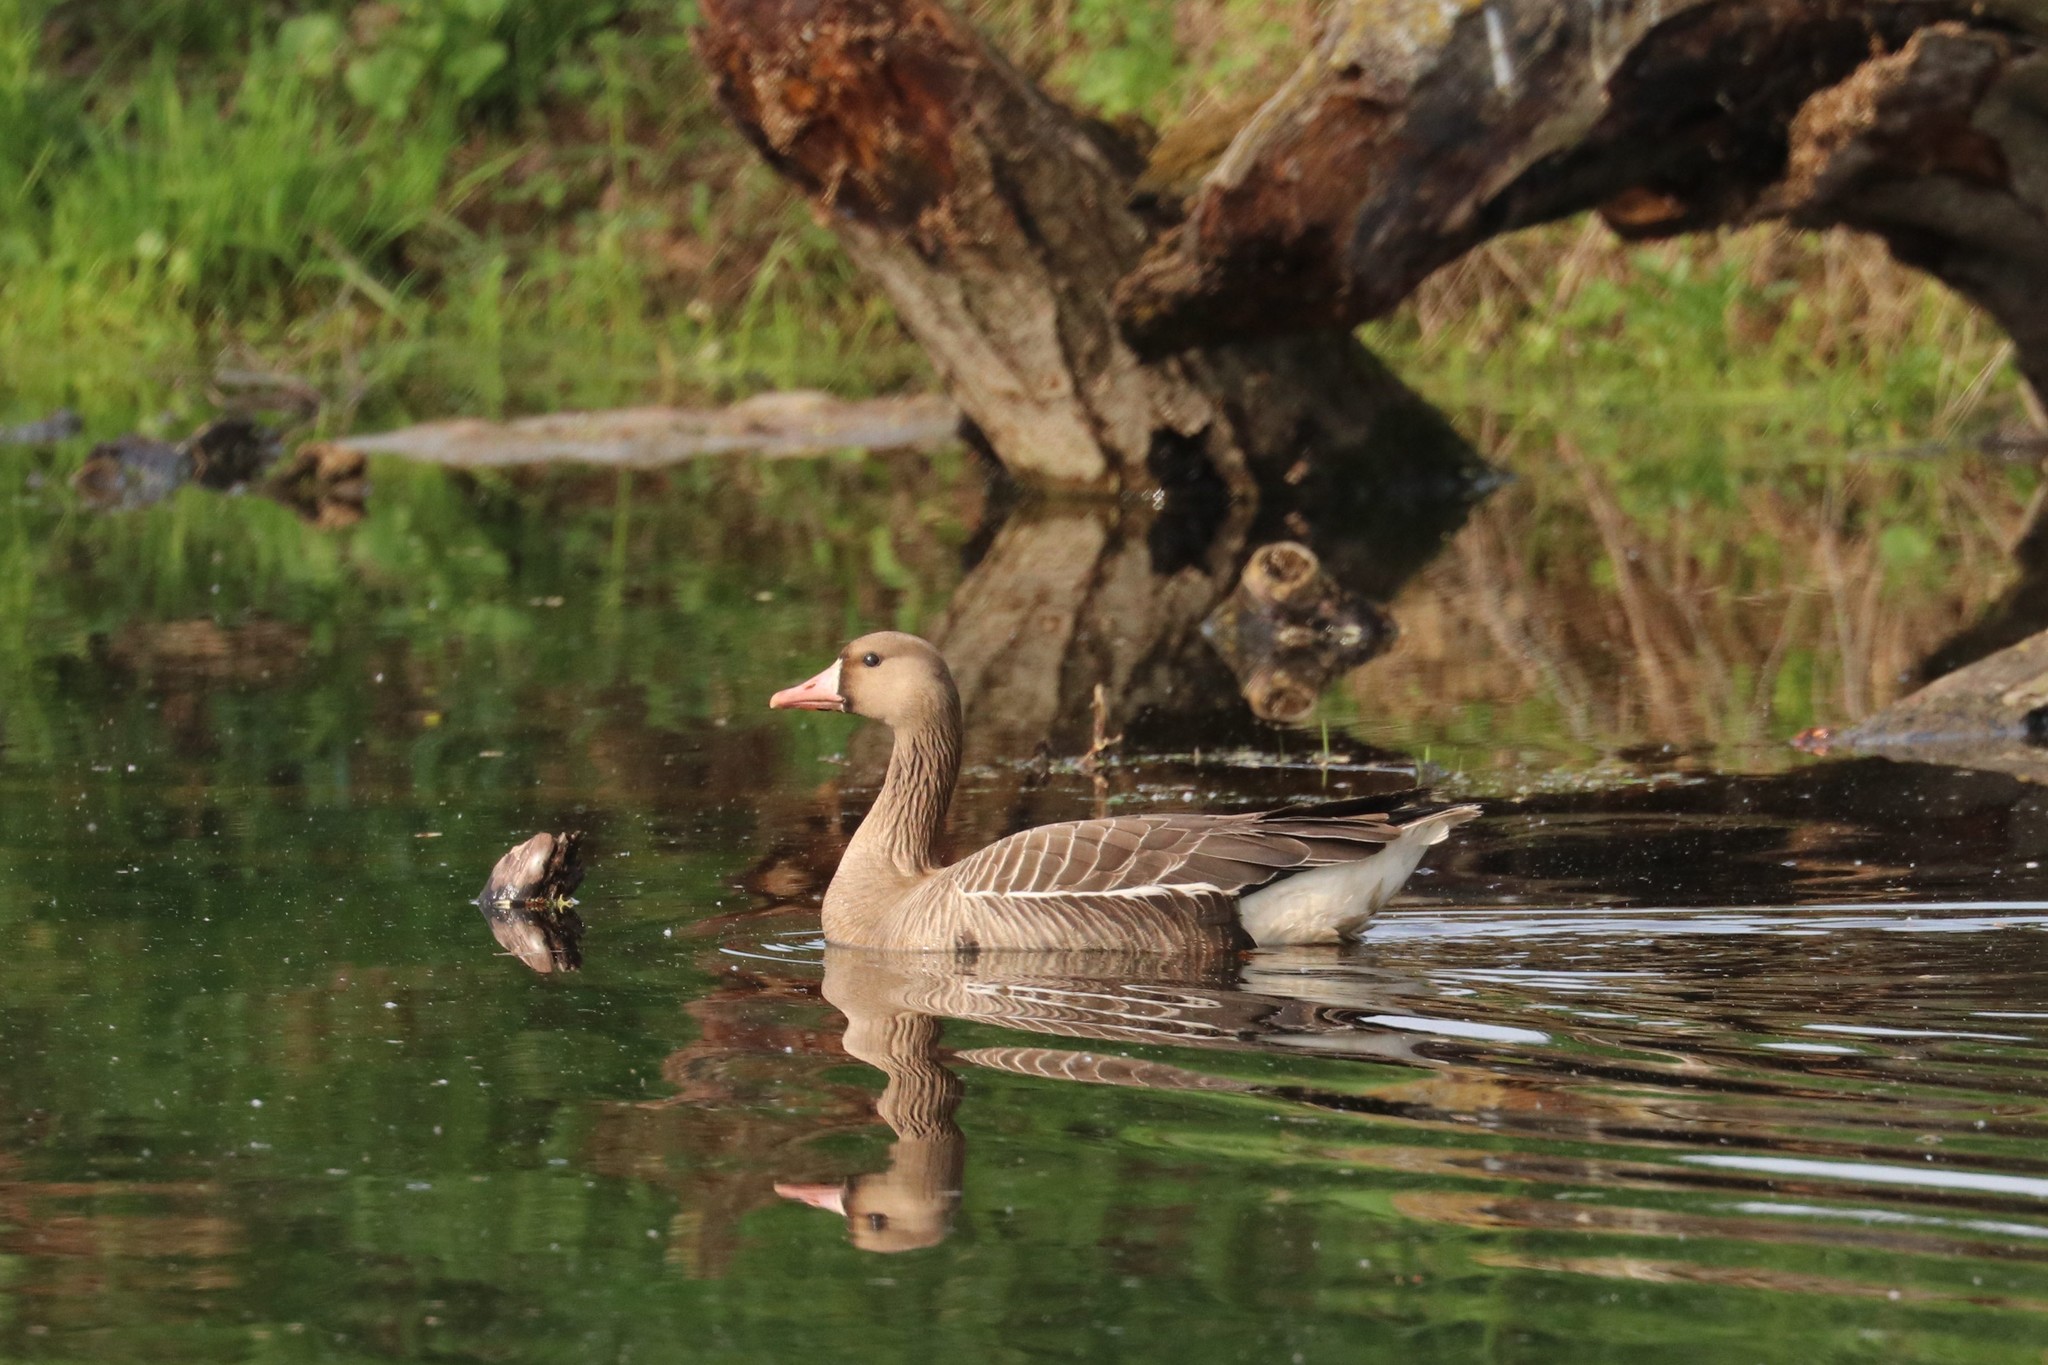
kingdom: Animalia
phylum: Chordata
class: Aves
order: Anseriformes
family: Anatidae
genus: Anser
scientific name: Anser albifrons
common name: Greater white-fronted goose
